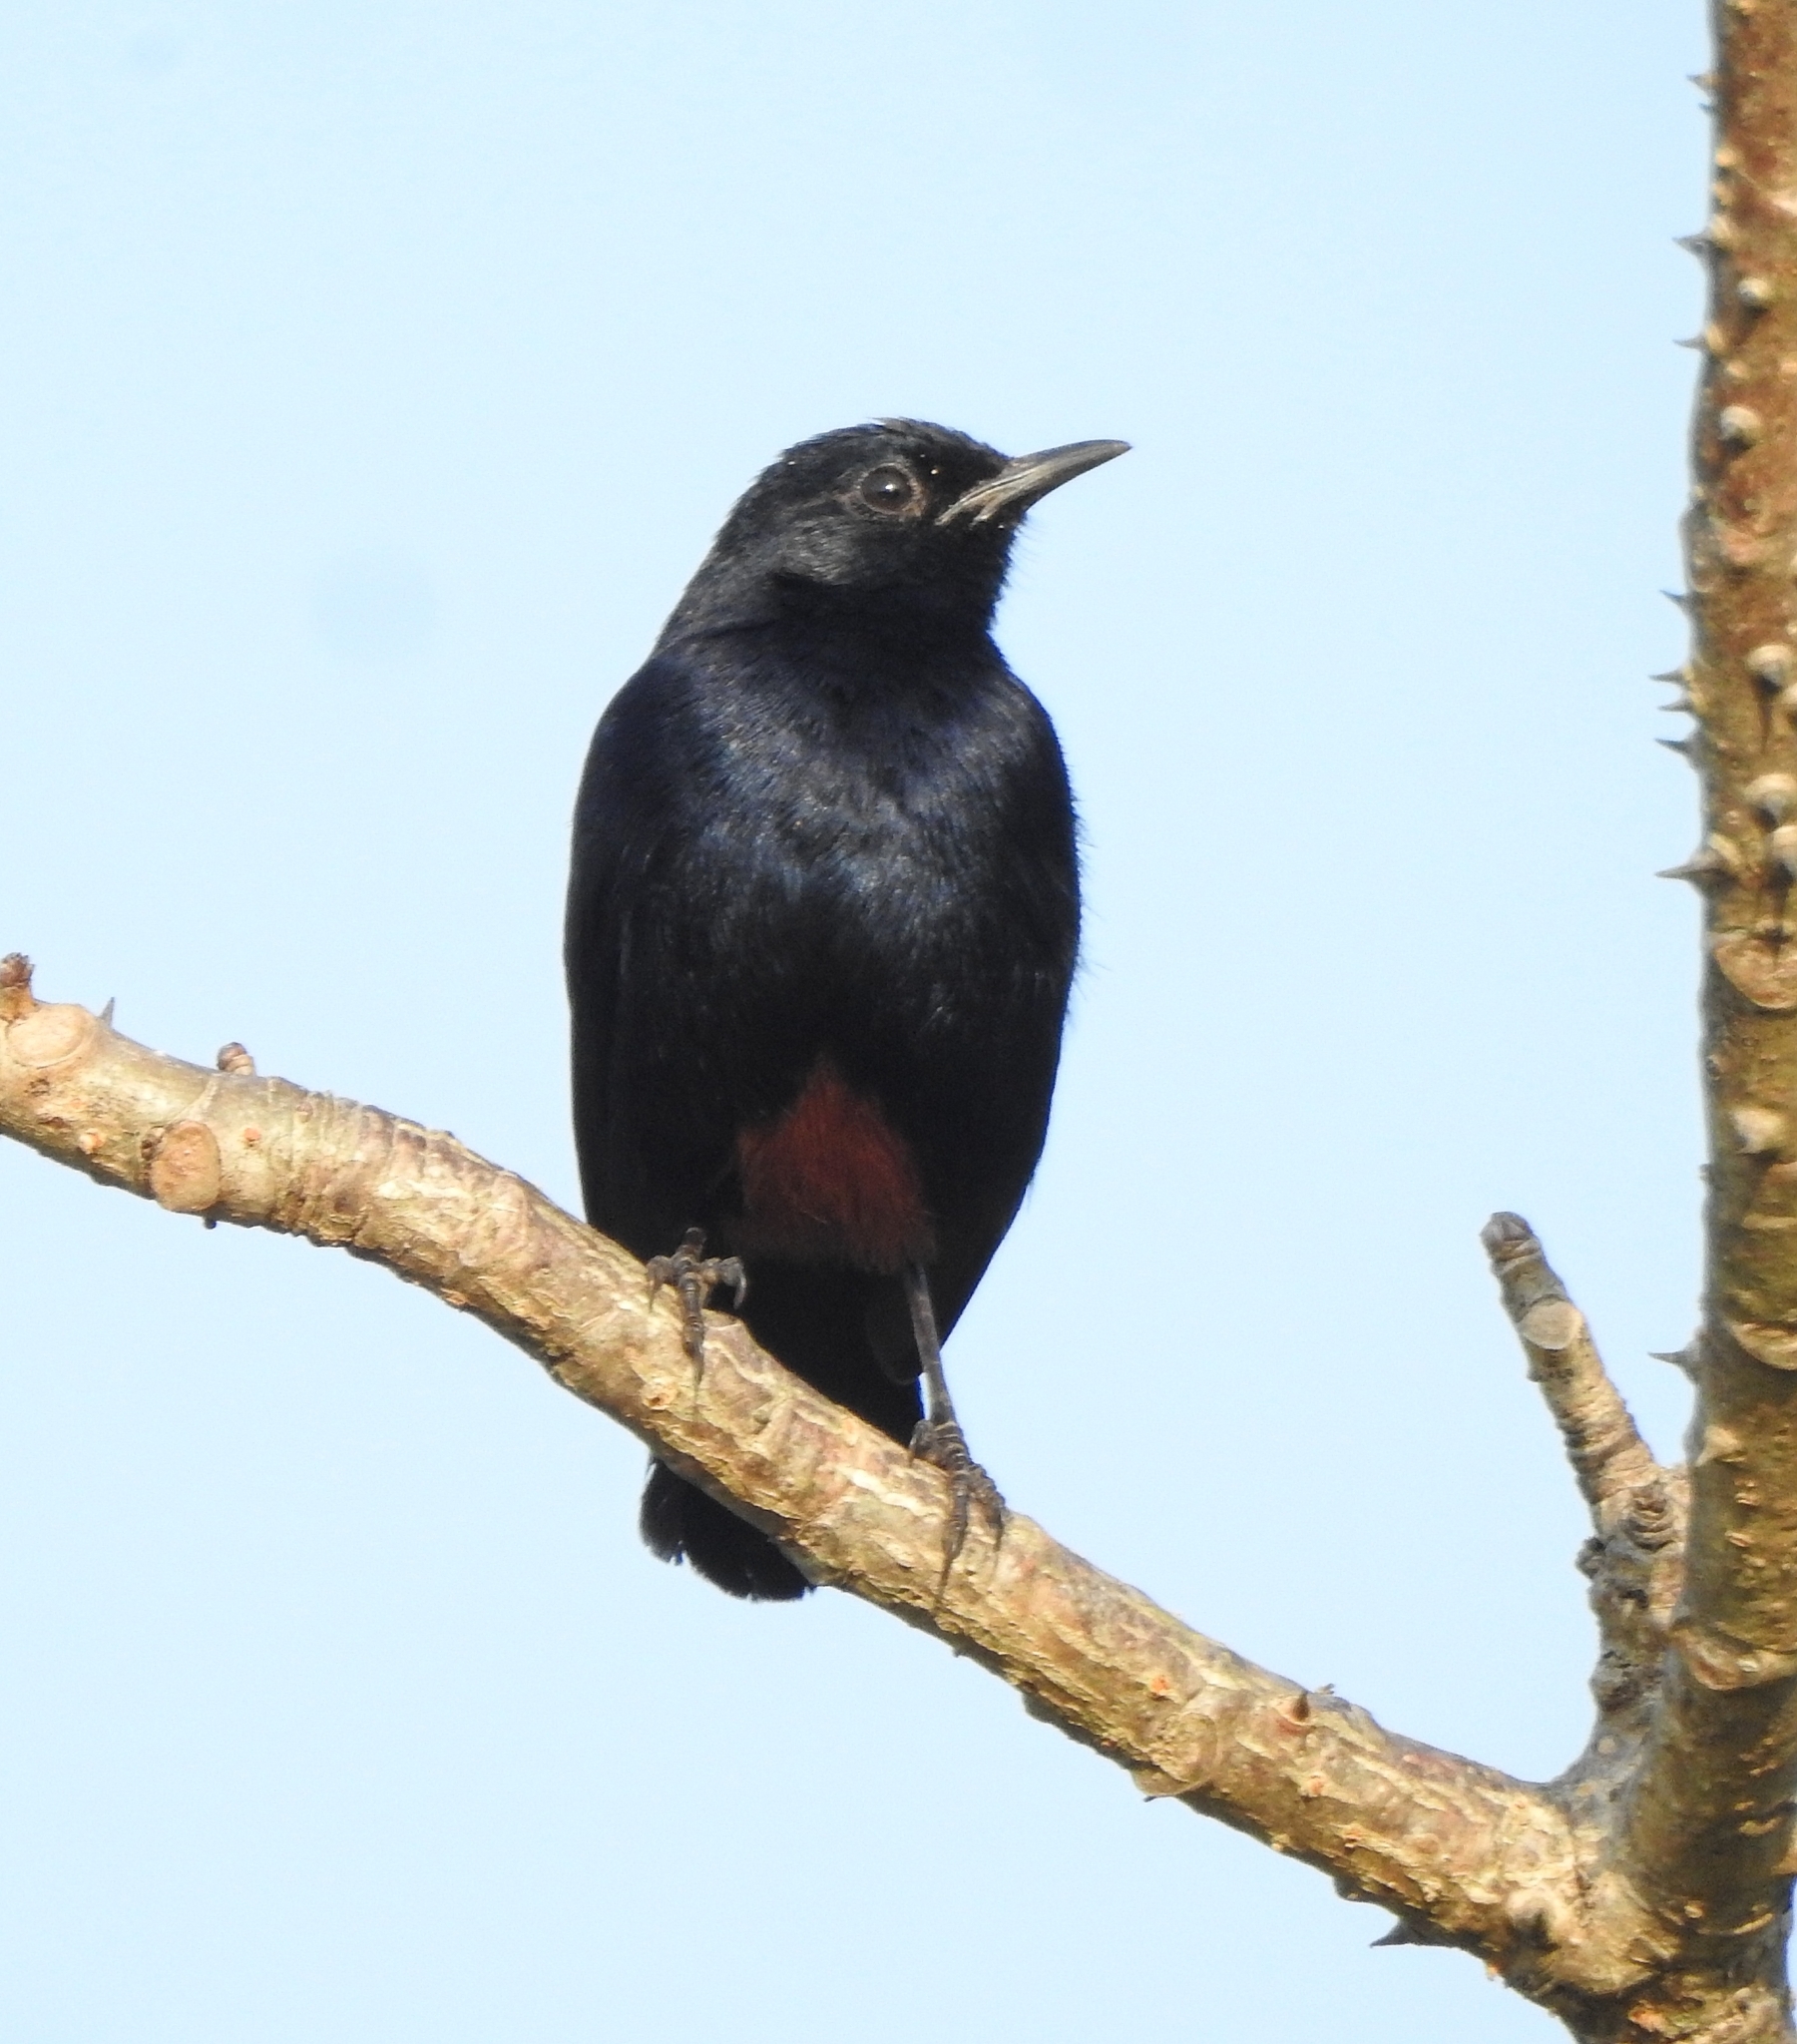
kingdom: Animalia
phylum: Chordata
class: Aves
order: Passeriformes
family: Muscicapidae
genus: Saxicoloides
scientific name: Saxicoloides fulicatus
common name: Indian robin
